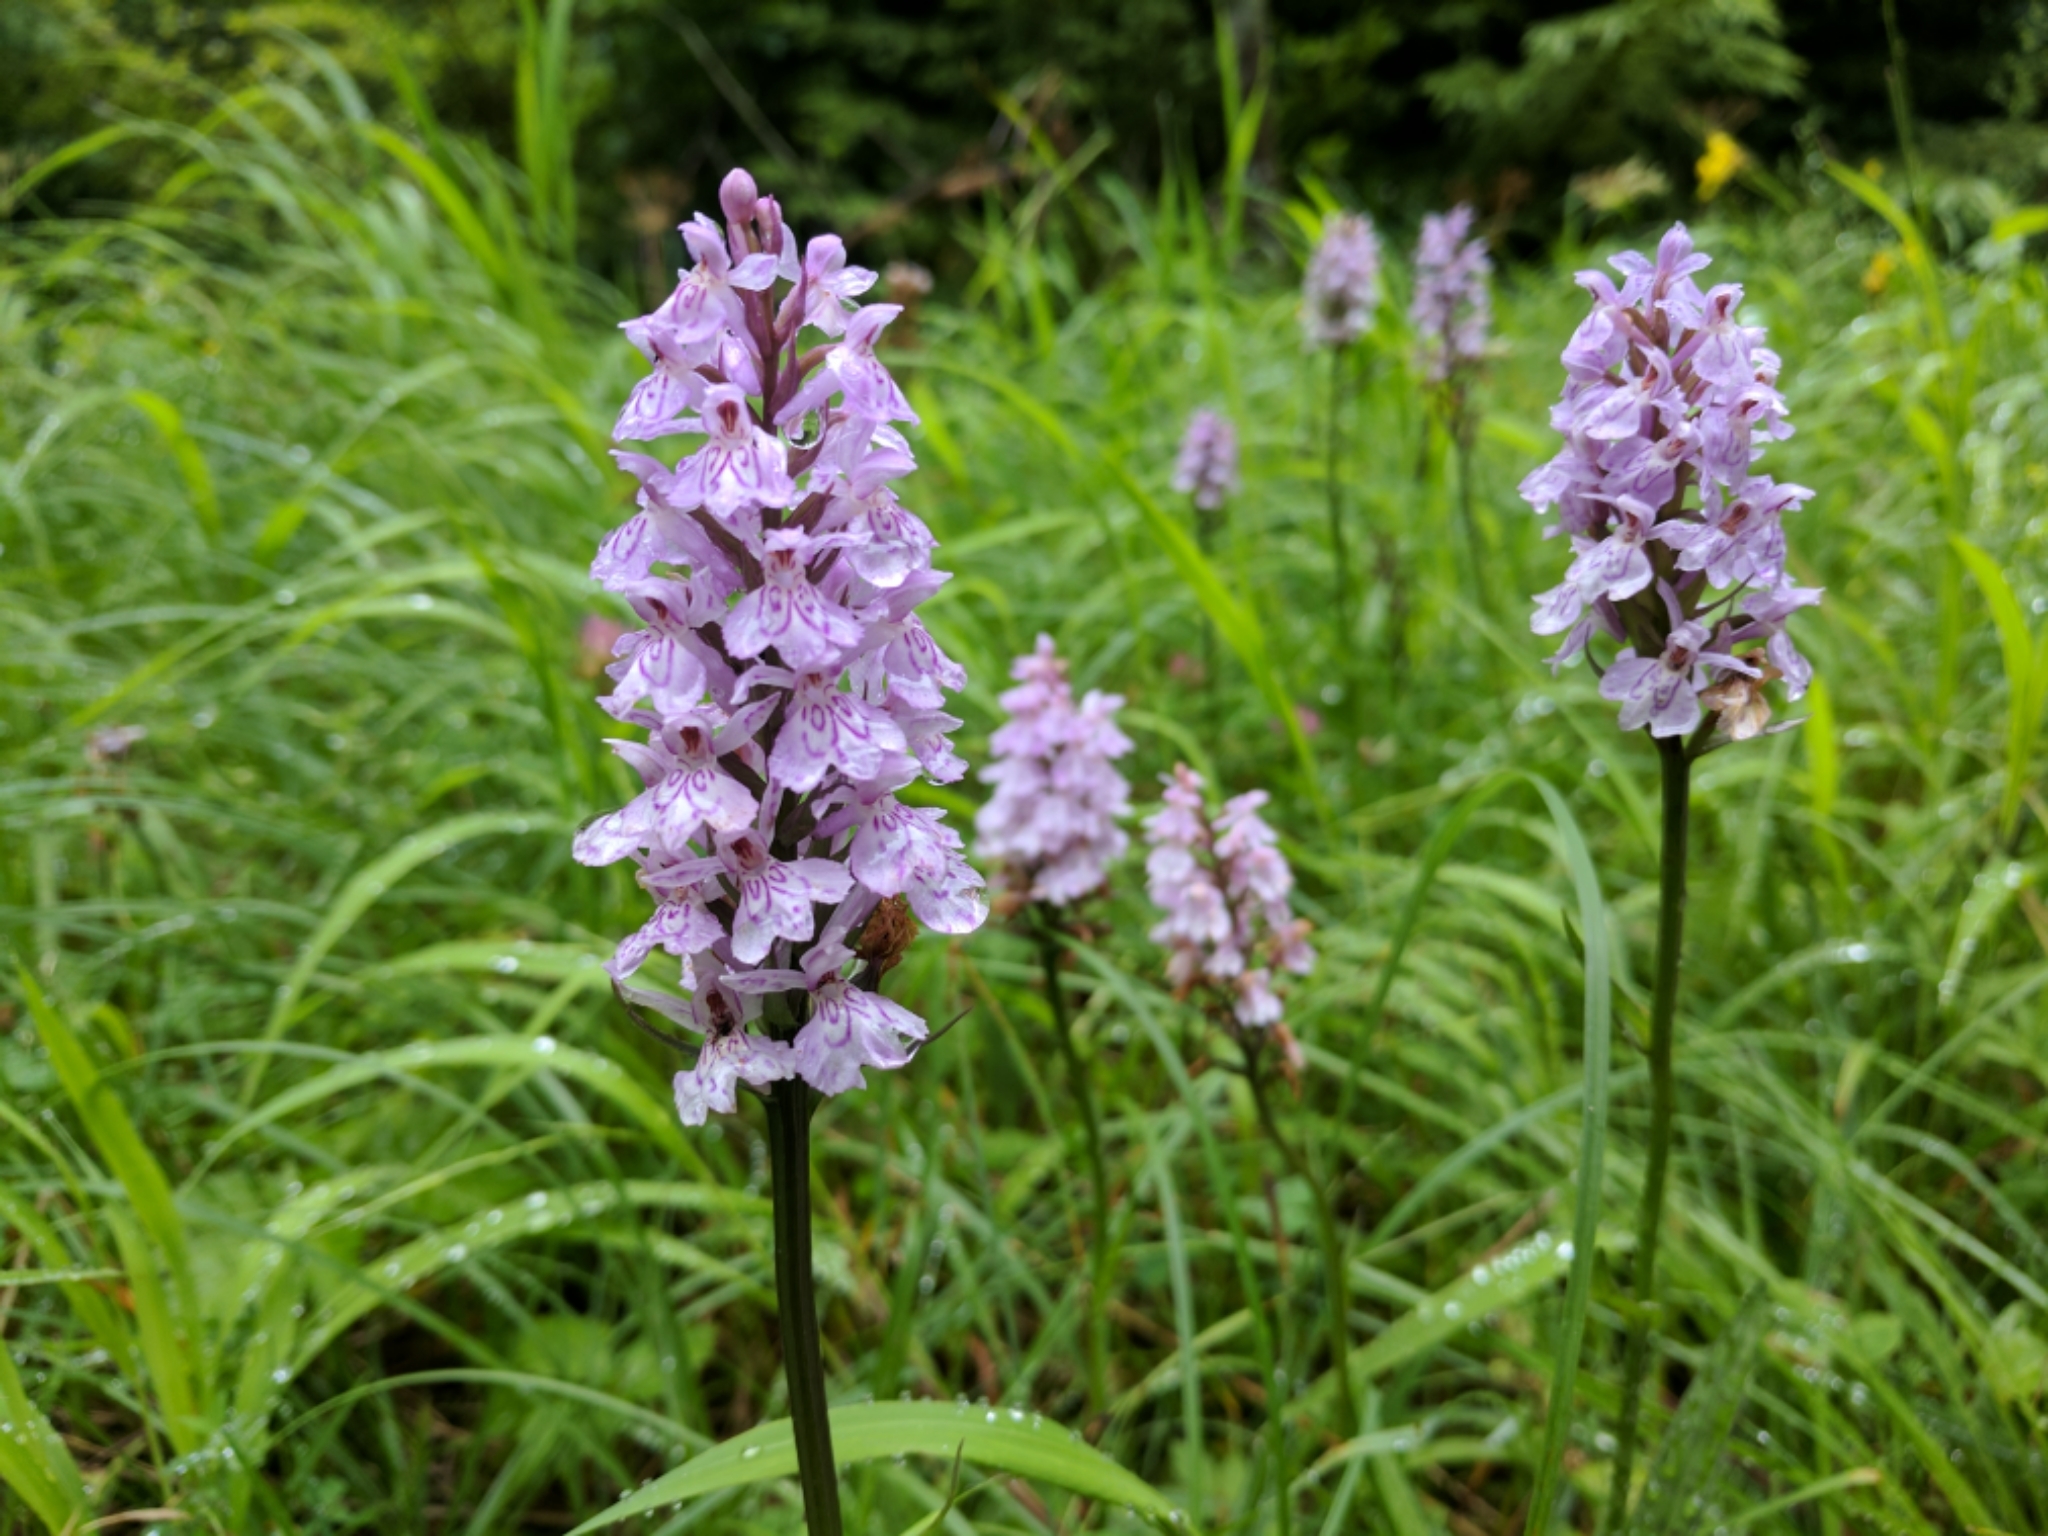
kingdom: Plantae
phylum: Tracheophyta
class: Liliopsida
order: Asparagales
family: Orchidaceae
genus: Dactylorhiza
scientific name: Dactylorhiza maculata
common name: Heath spotted-orchid
